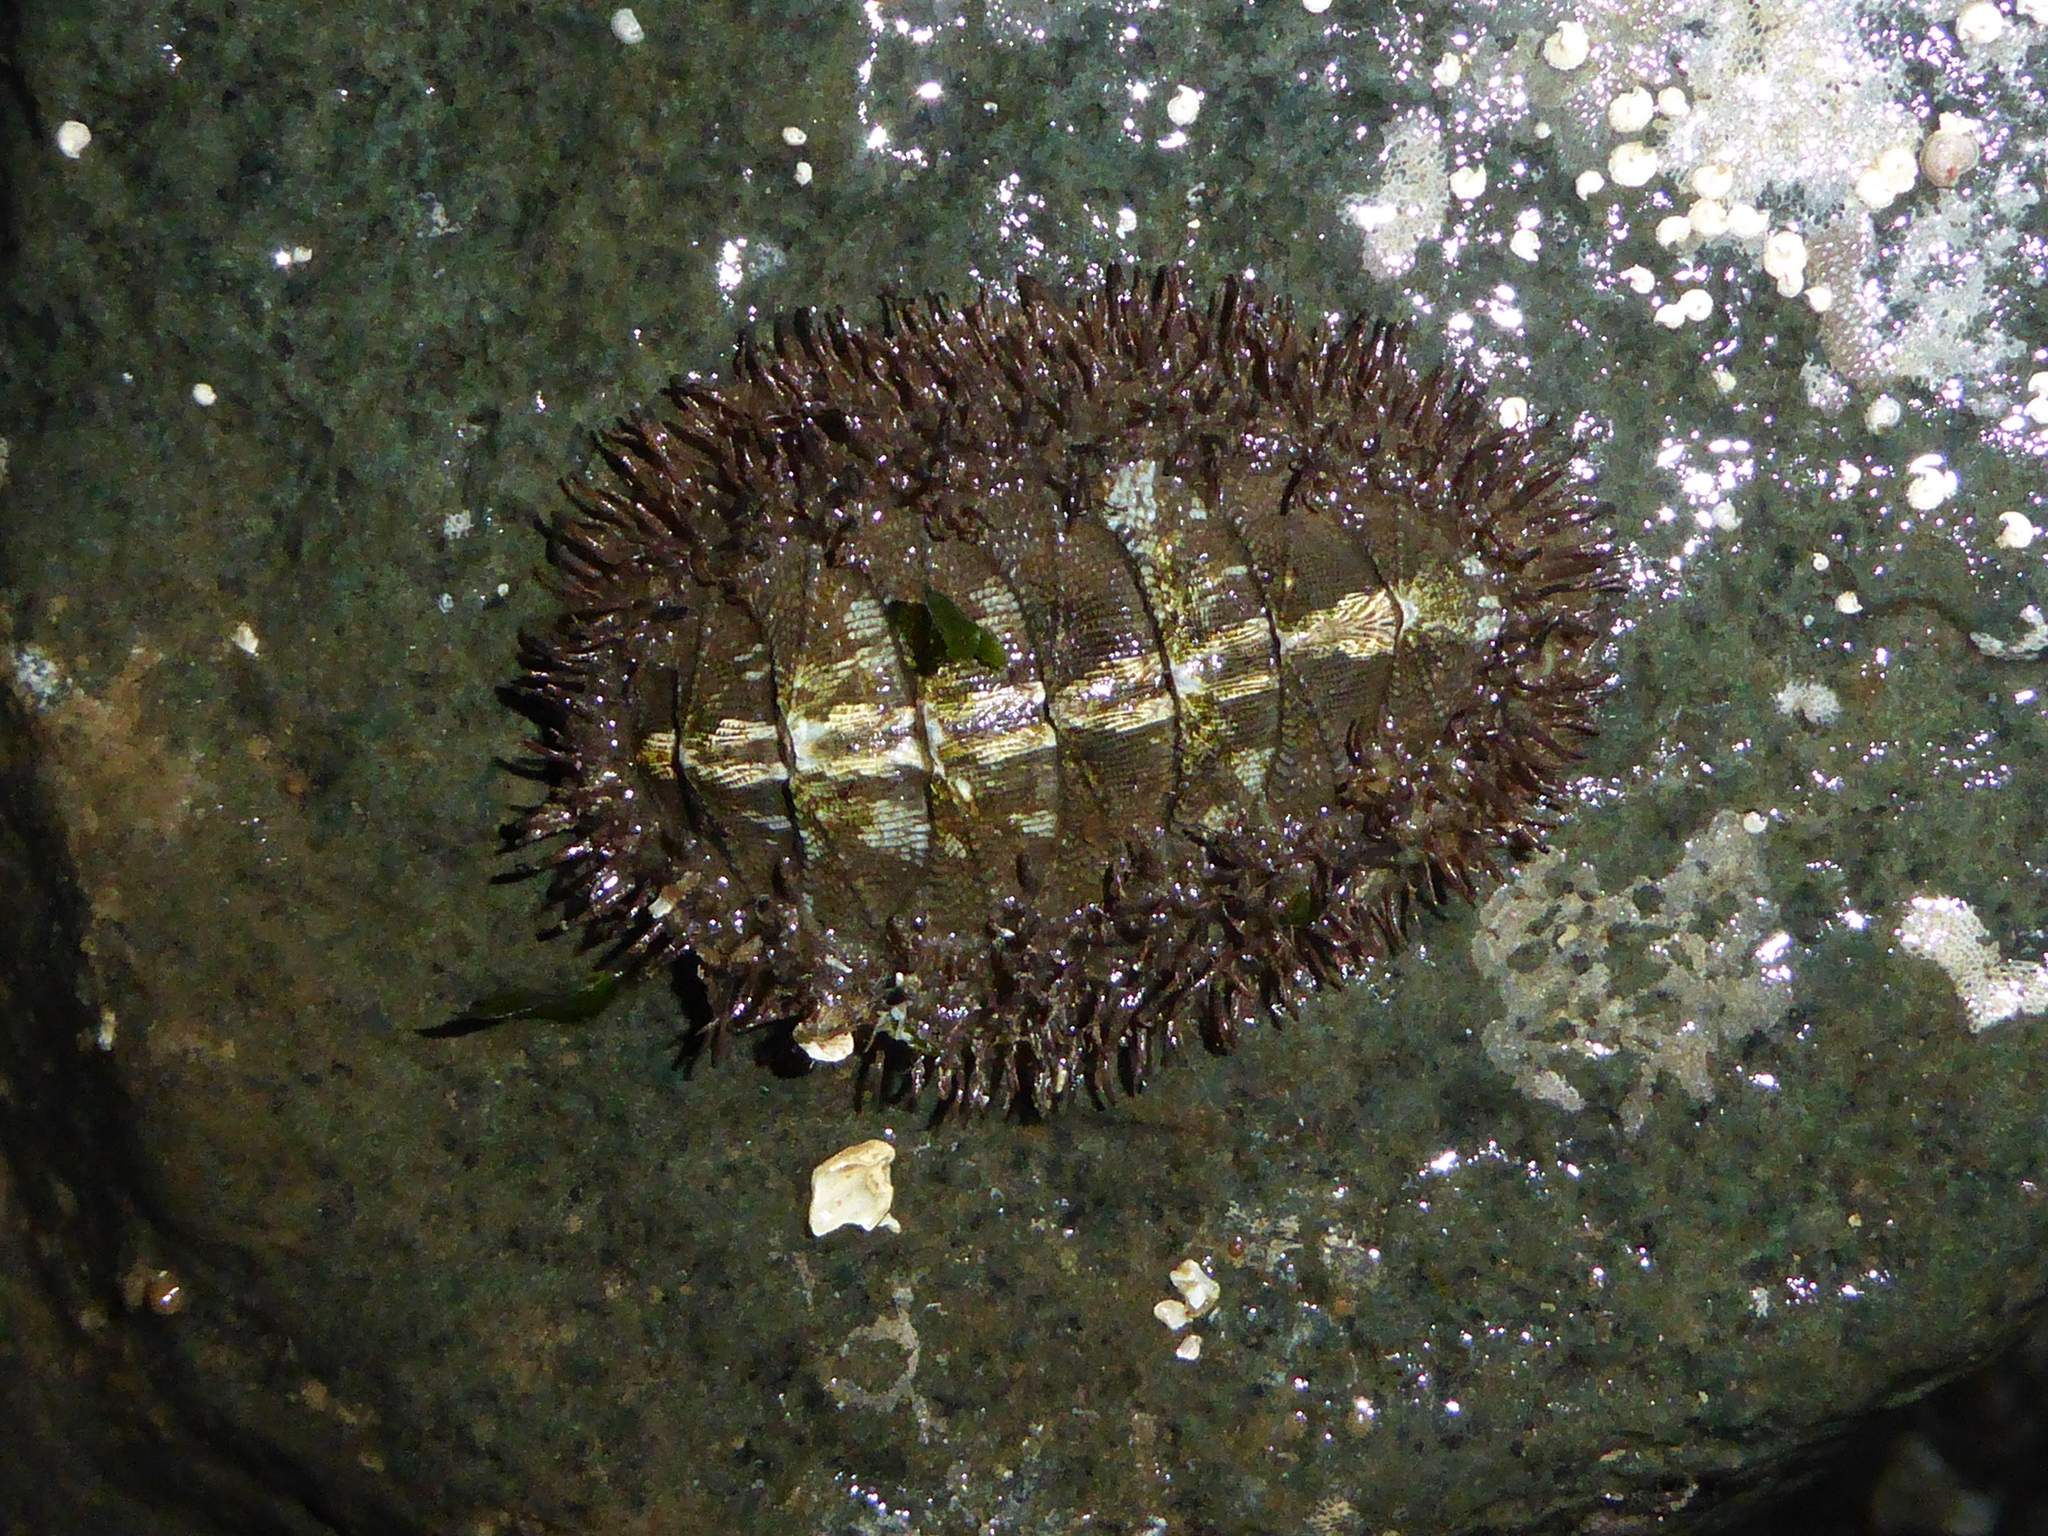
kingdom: Animalia
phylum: Mollusca
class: Polyplacophora
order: Chitonida
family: Mopaliidae
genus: Mopalia
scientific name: Mopalia muscosa
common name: Mossy chiton
